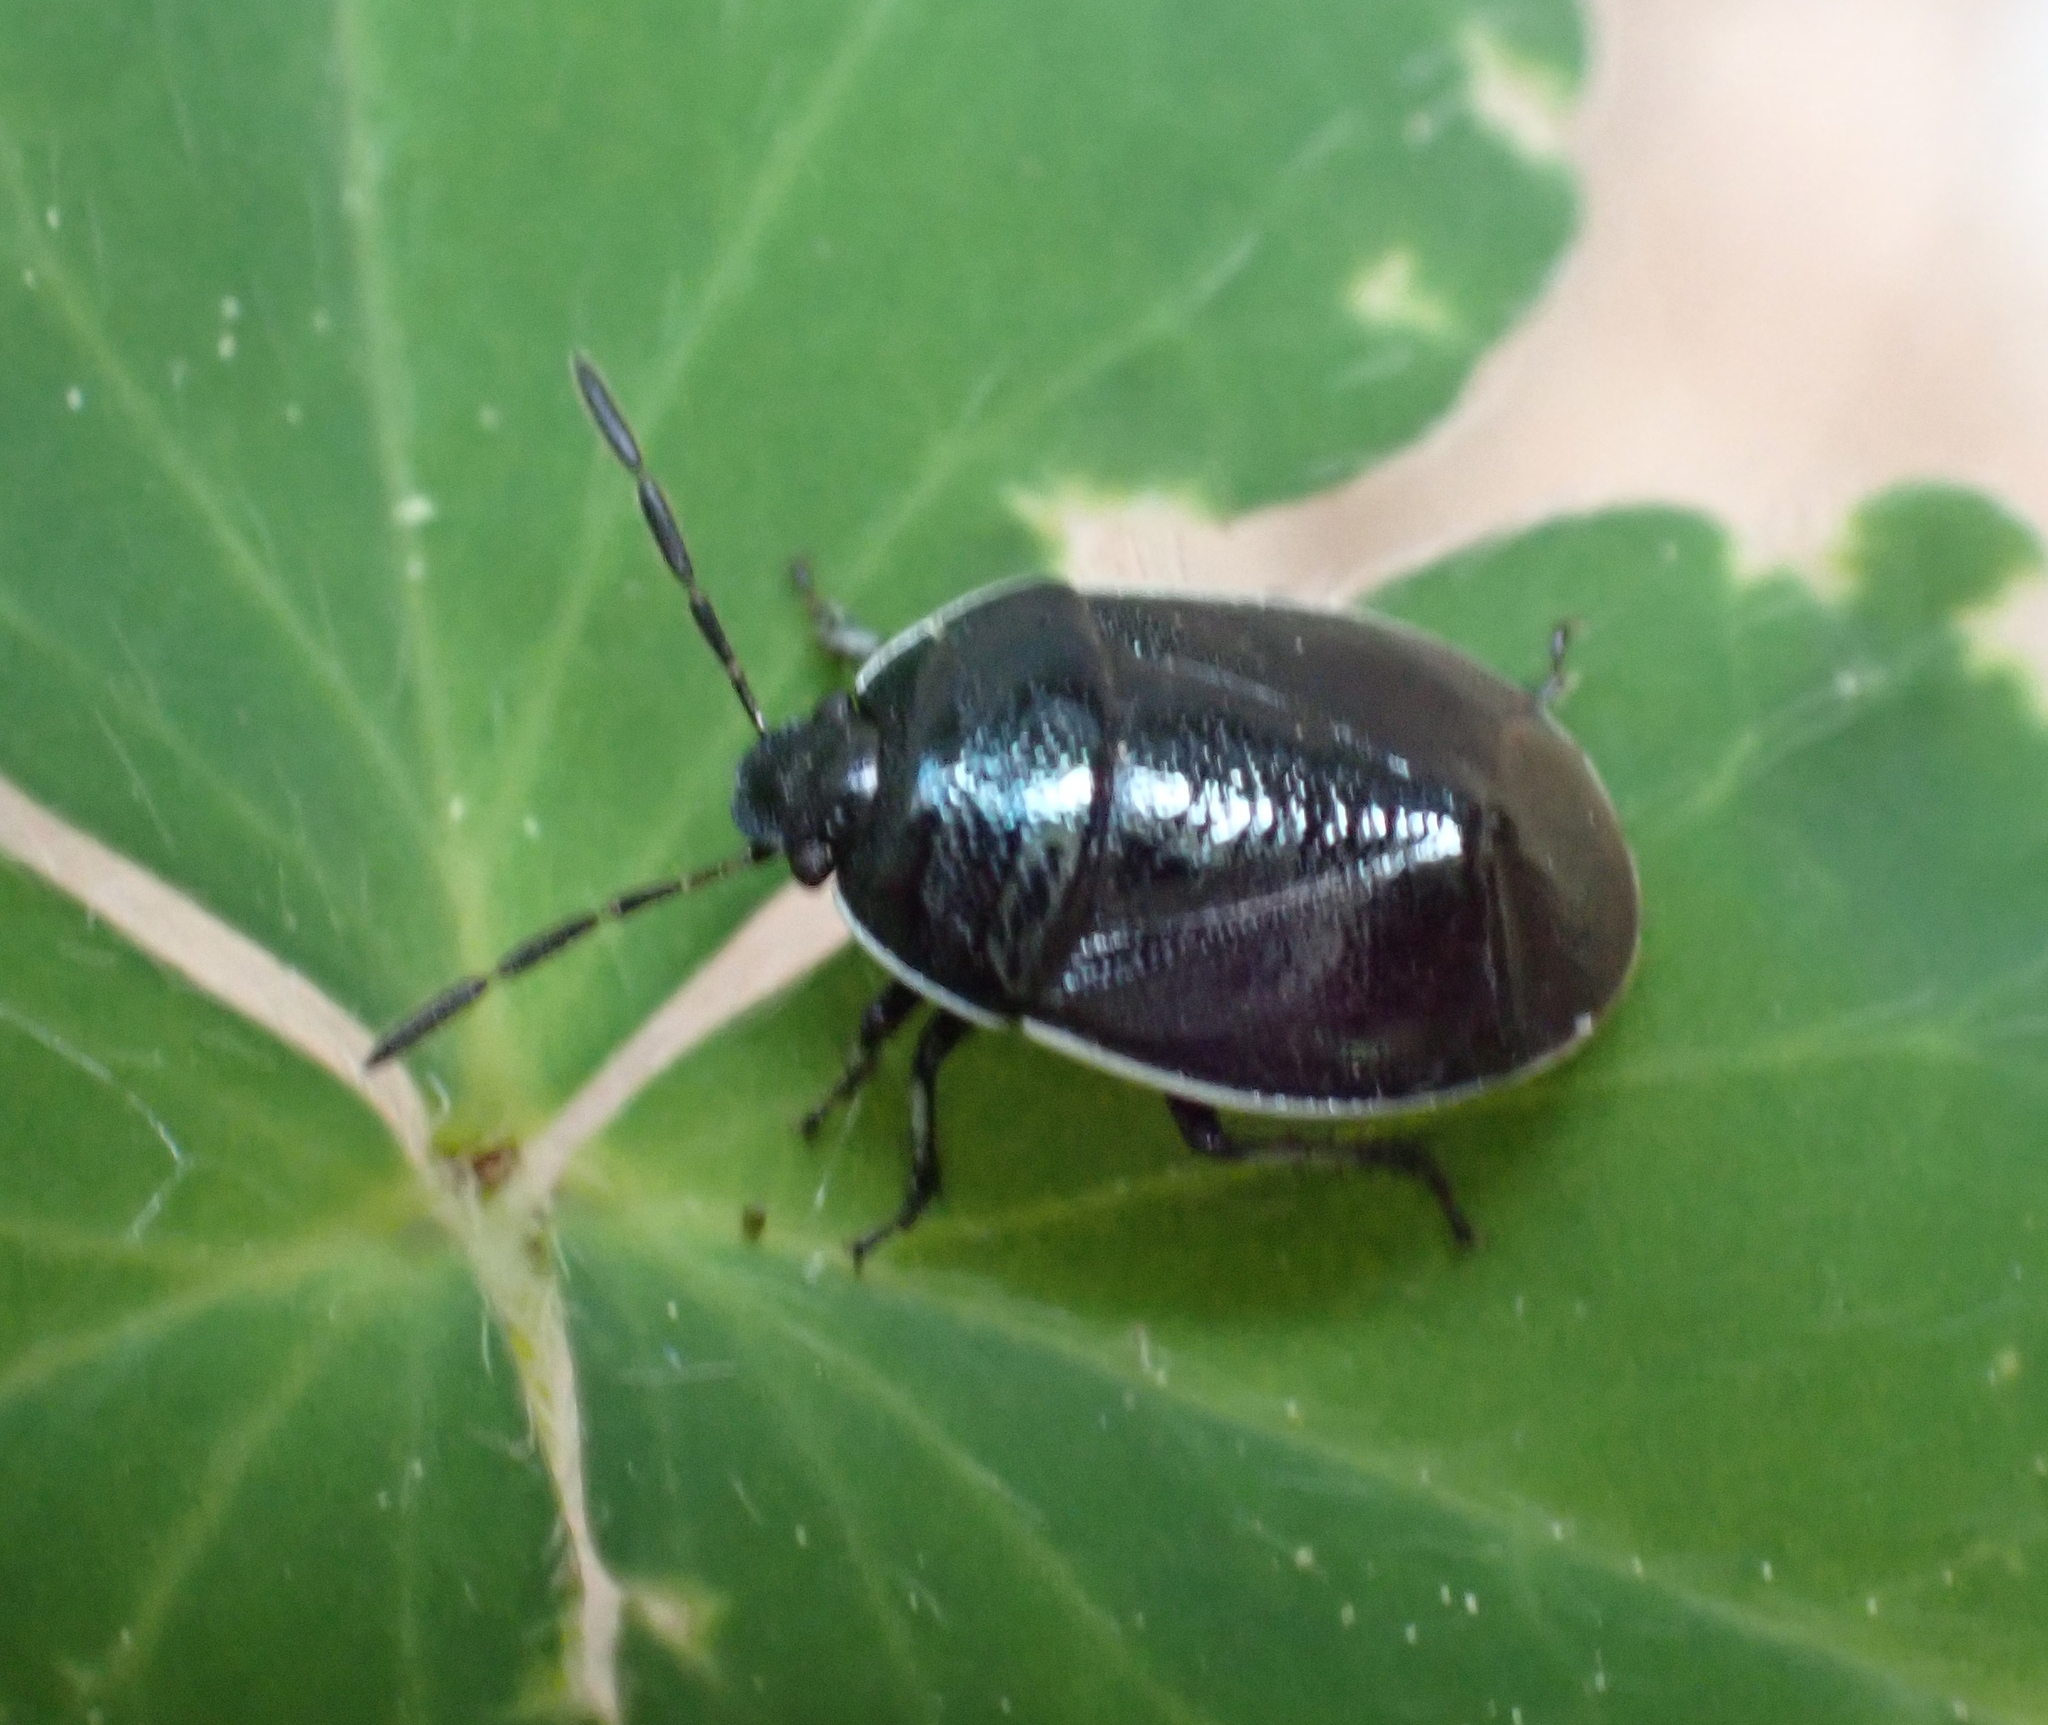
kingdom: Animalia
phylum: Arthropoda
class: Insecta
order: Hemiptera
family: Cydnidae
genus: Sehirus
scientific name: Sehirus cinctus
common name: White-margined burrower bug
